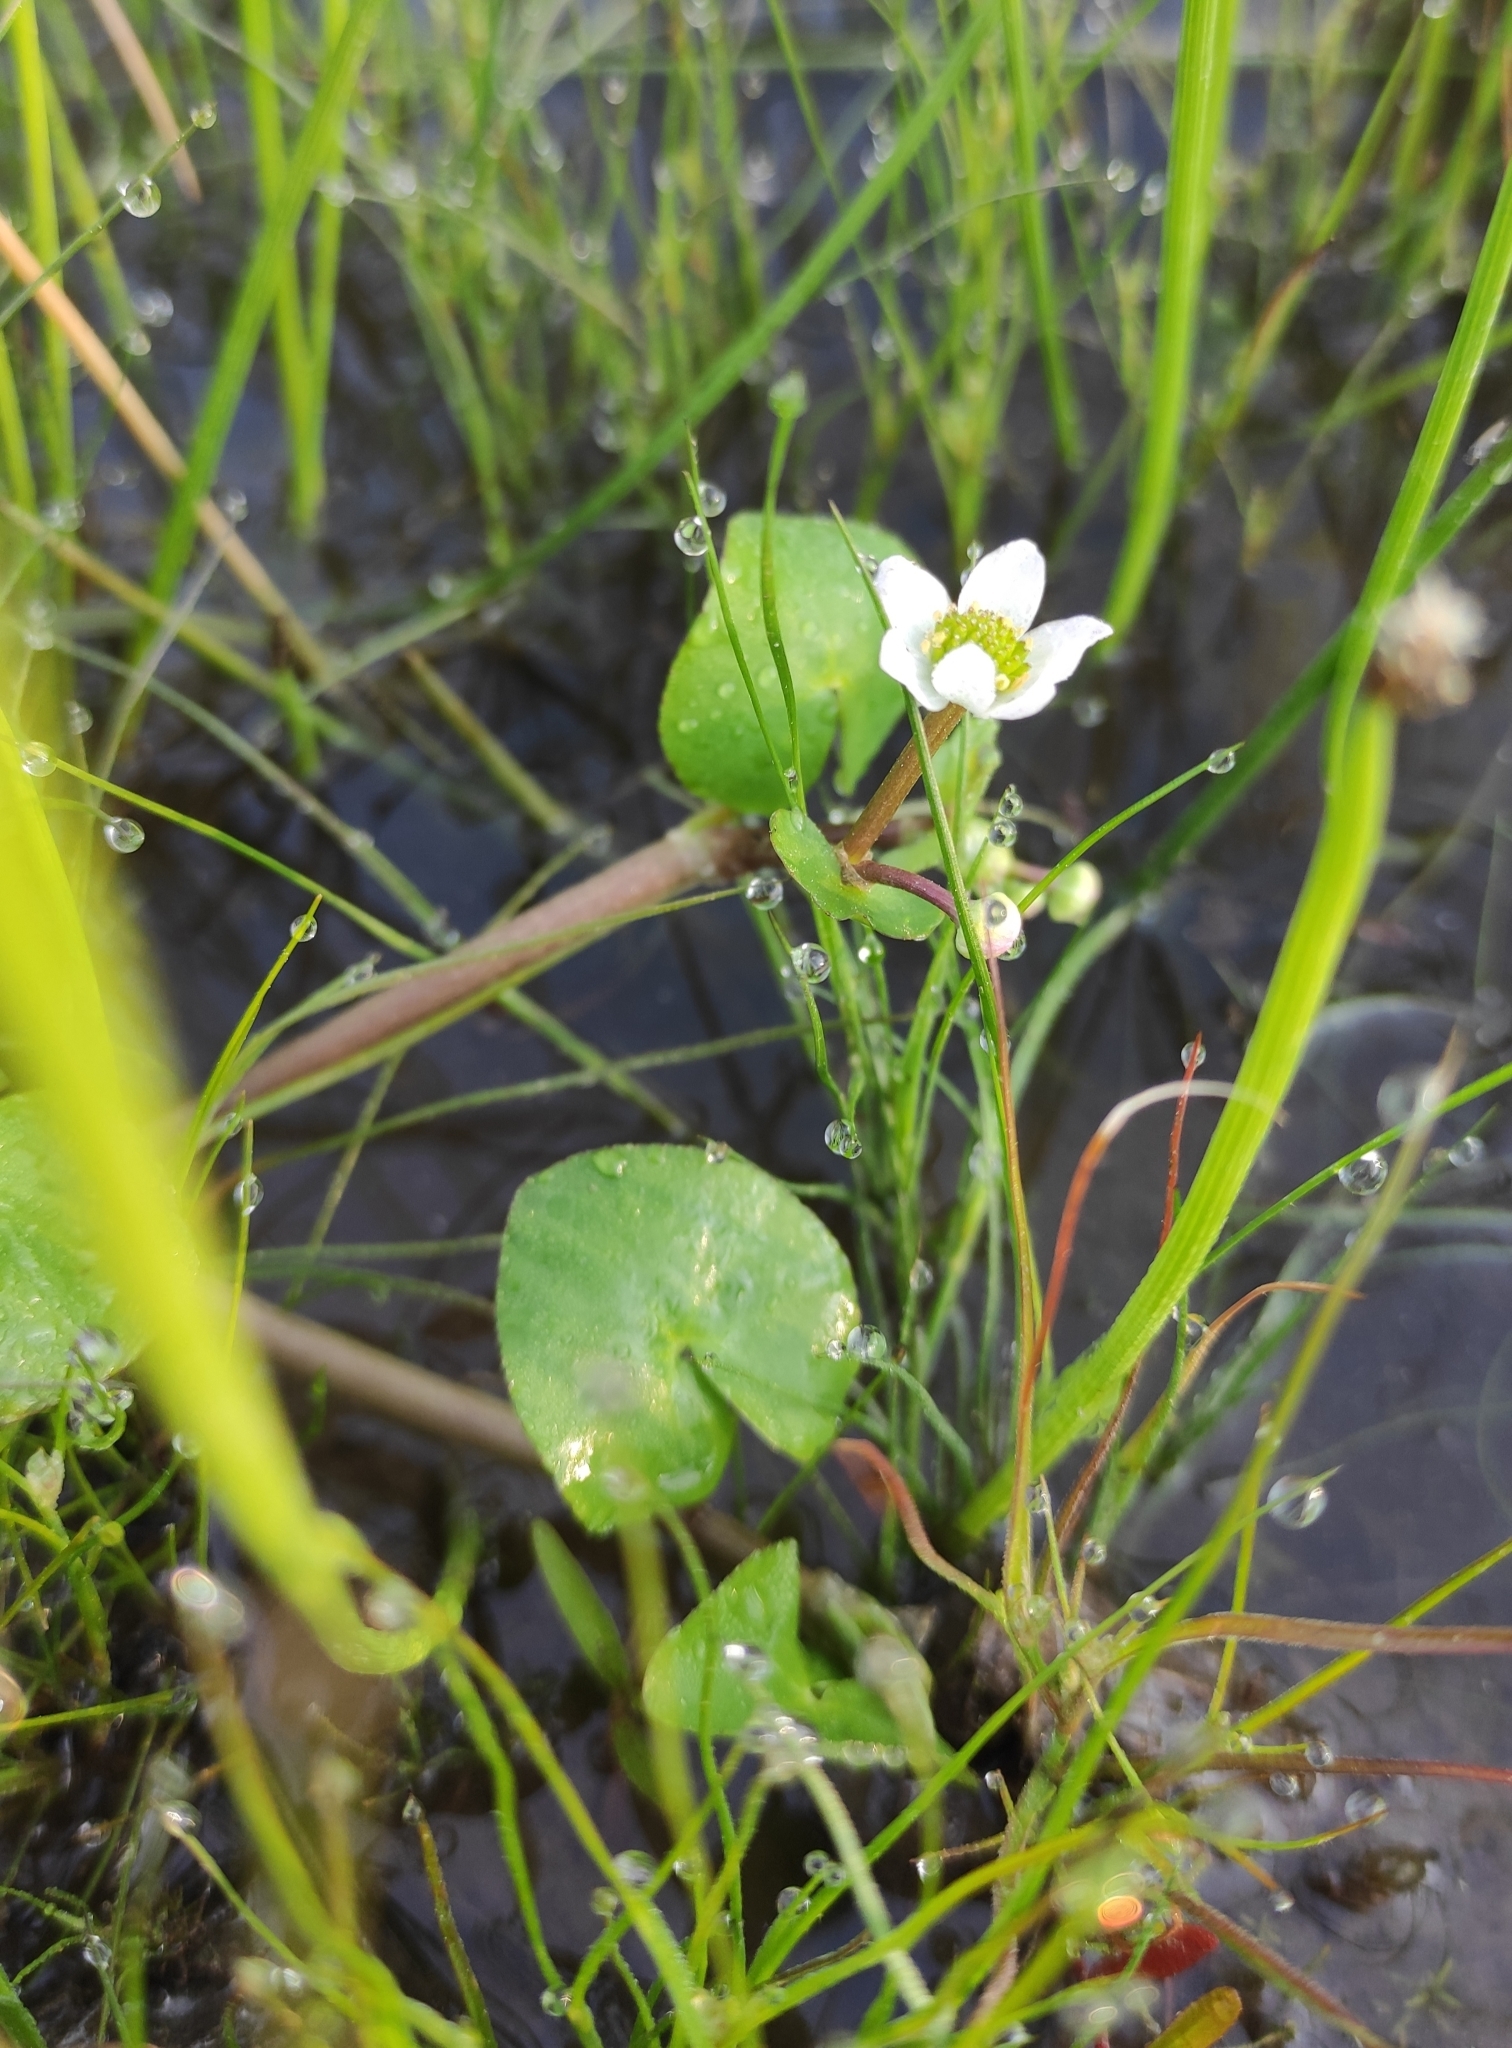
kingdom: Plantae
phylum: Tracheophyta
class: Magnoliopsida
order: Ranunculales
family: Ranunculaceae
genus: Caltha
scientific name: Caltha natans
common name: Floating marsh marigold
